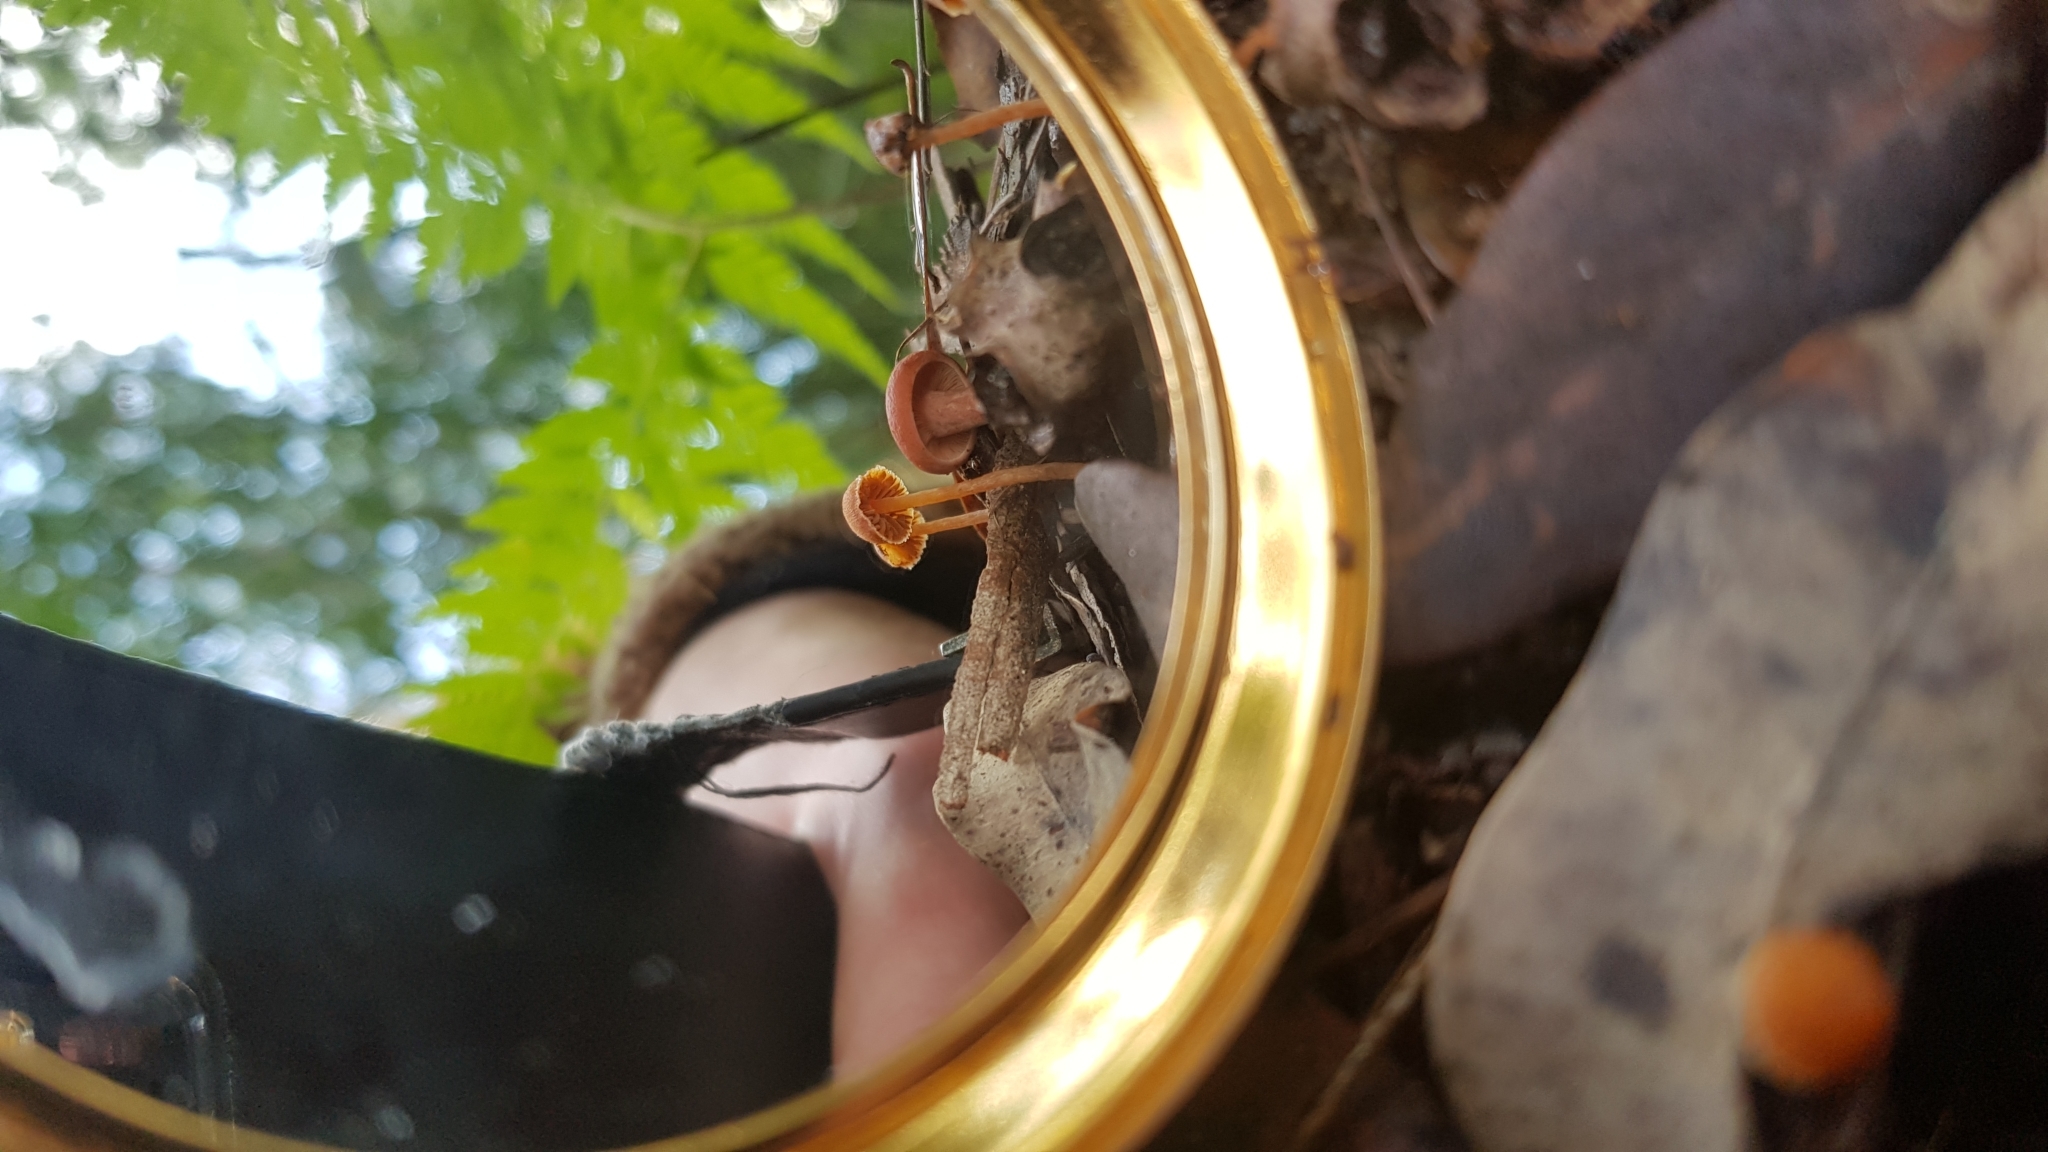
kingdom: Fungi
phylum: Basidiomycota
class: Agaricomycetes
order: Russulales
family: Russulaceae
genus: Lactarius
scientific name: Lactarius eucalypti
